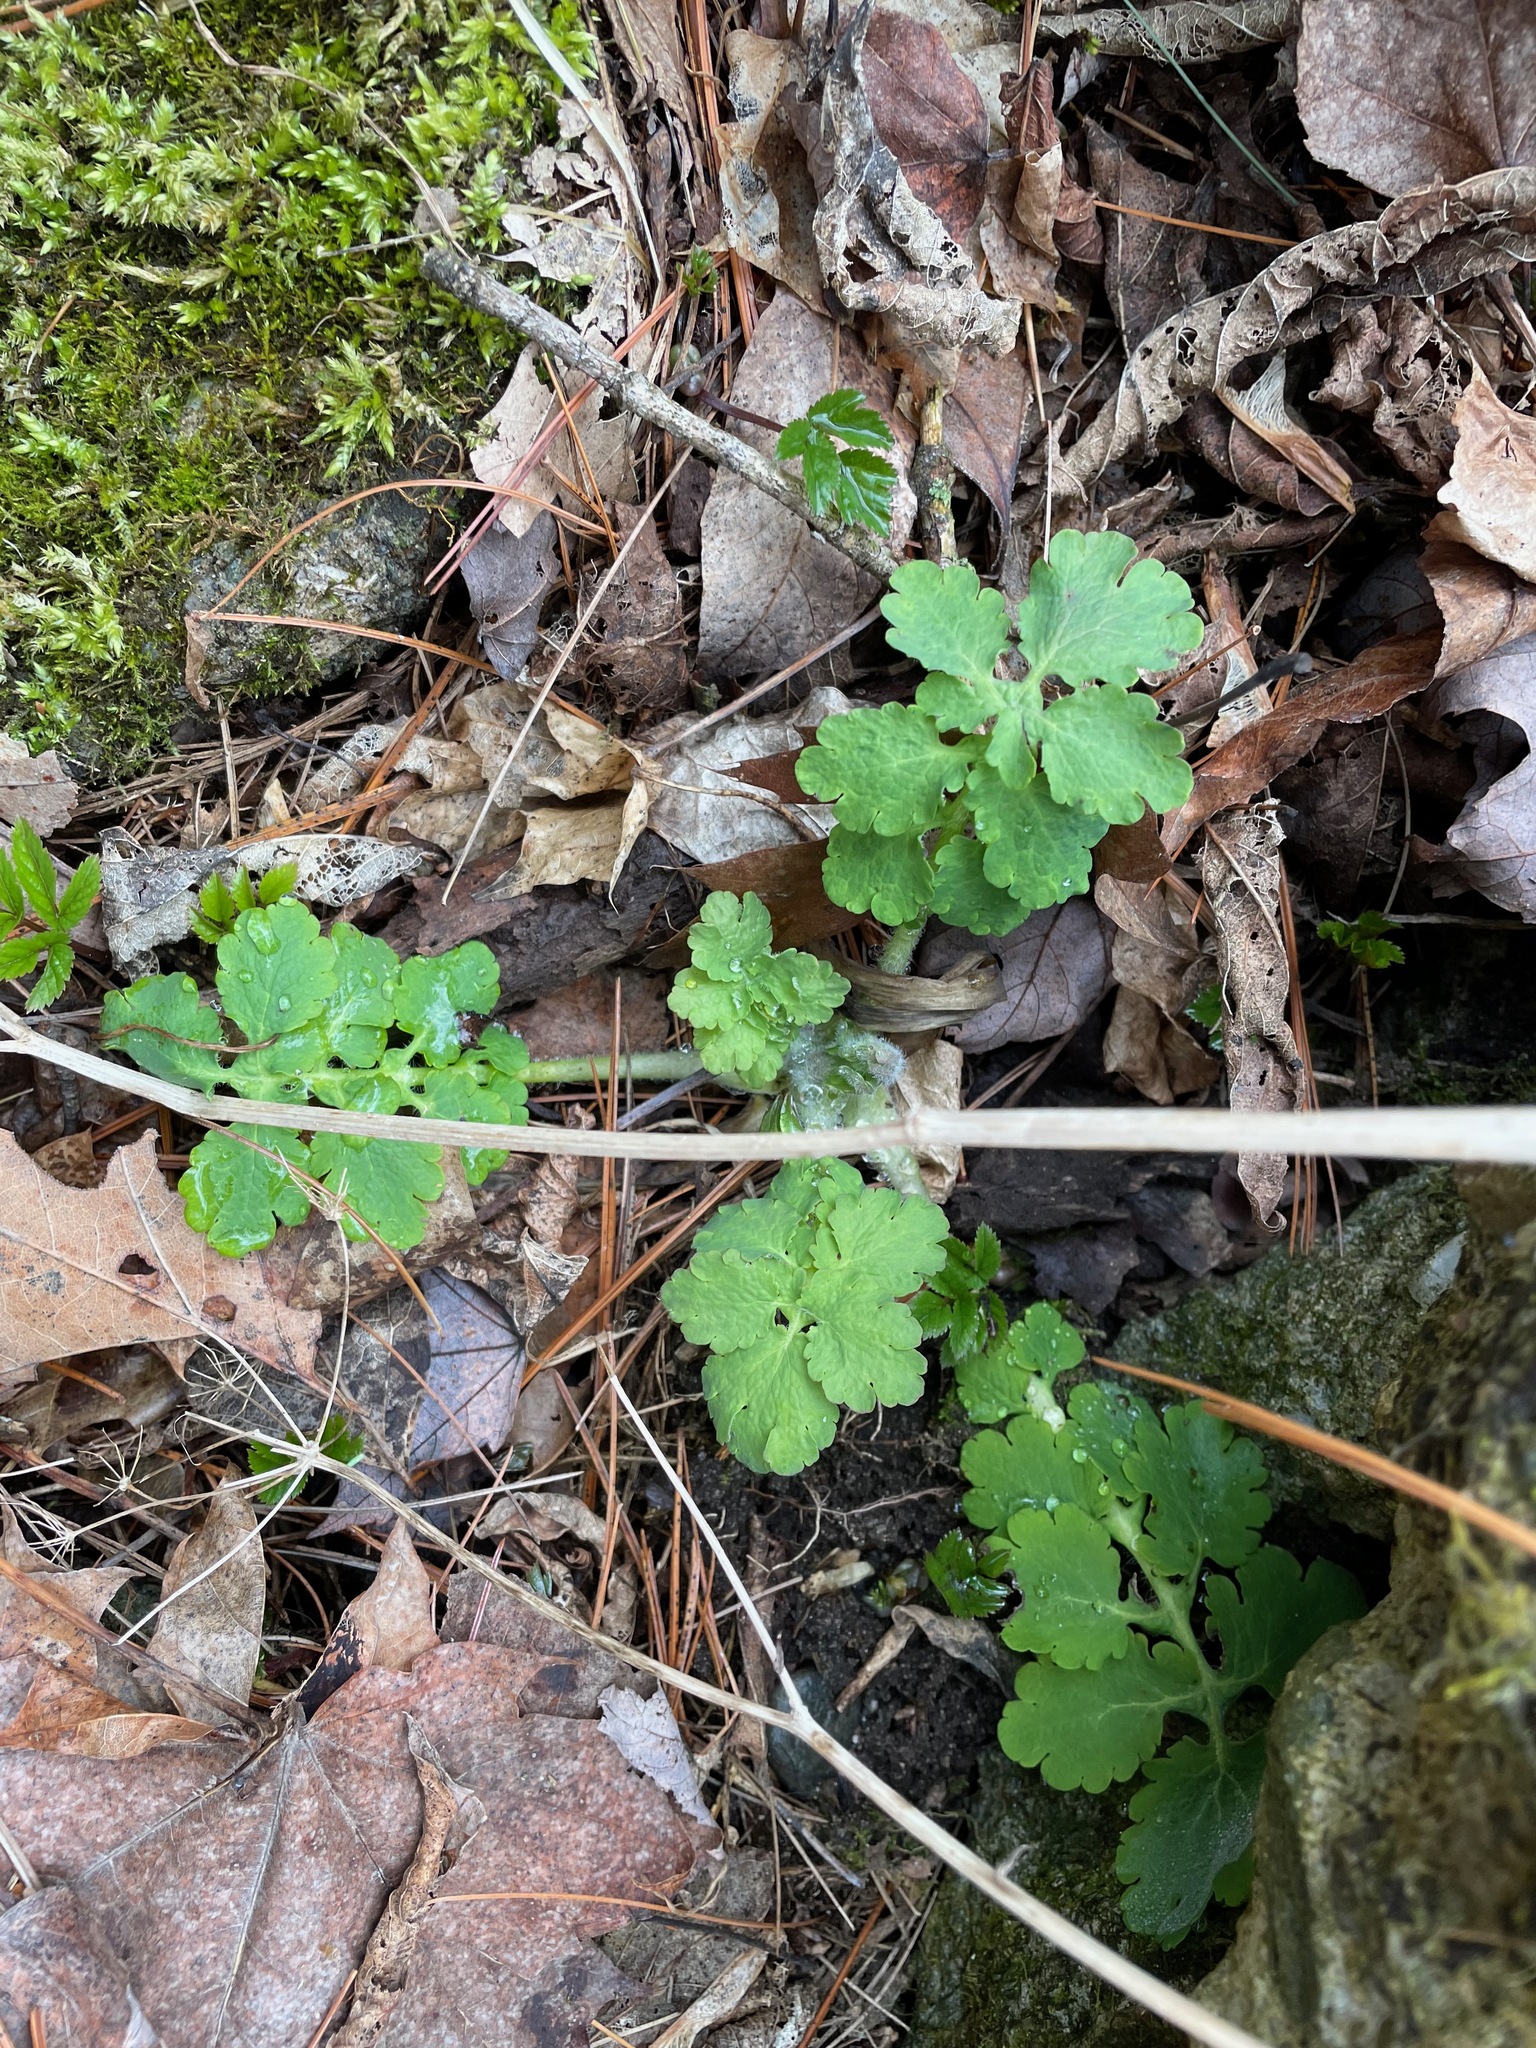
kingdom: Plantae
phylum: Tracheophyta
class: Magnoliopsida
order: Ranunculales
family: Papaveraceae
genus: Chelidonium
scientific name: Chelidonium majus
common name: Greater celandine
